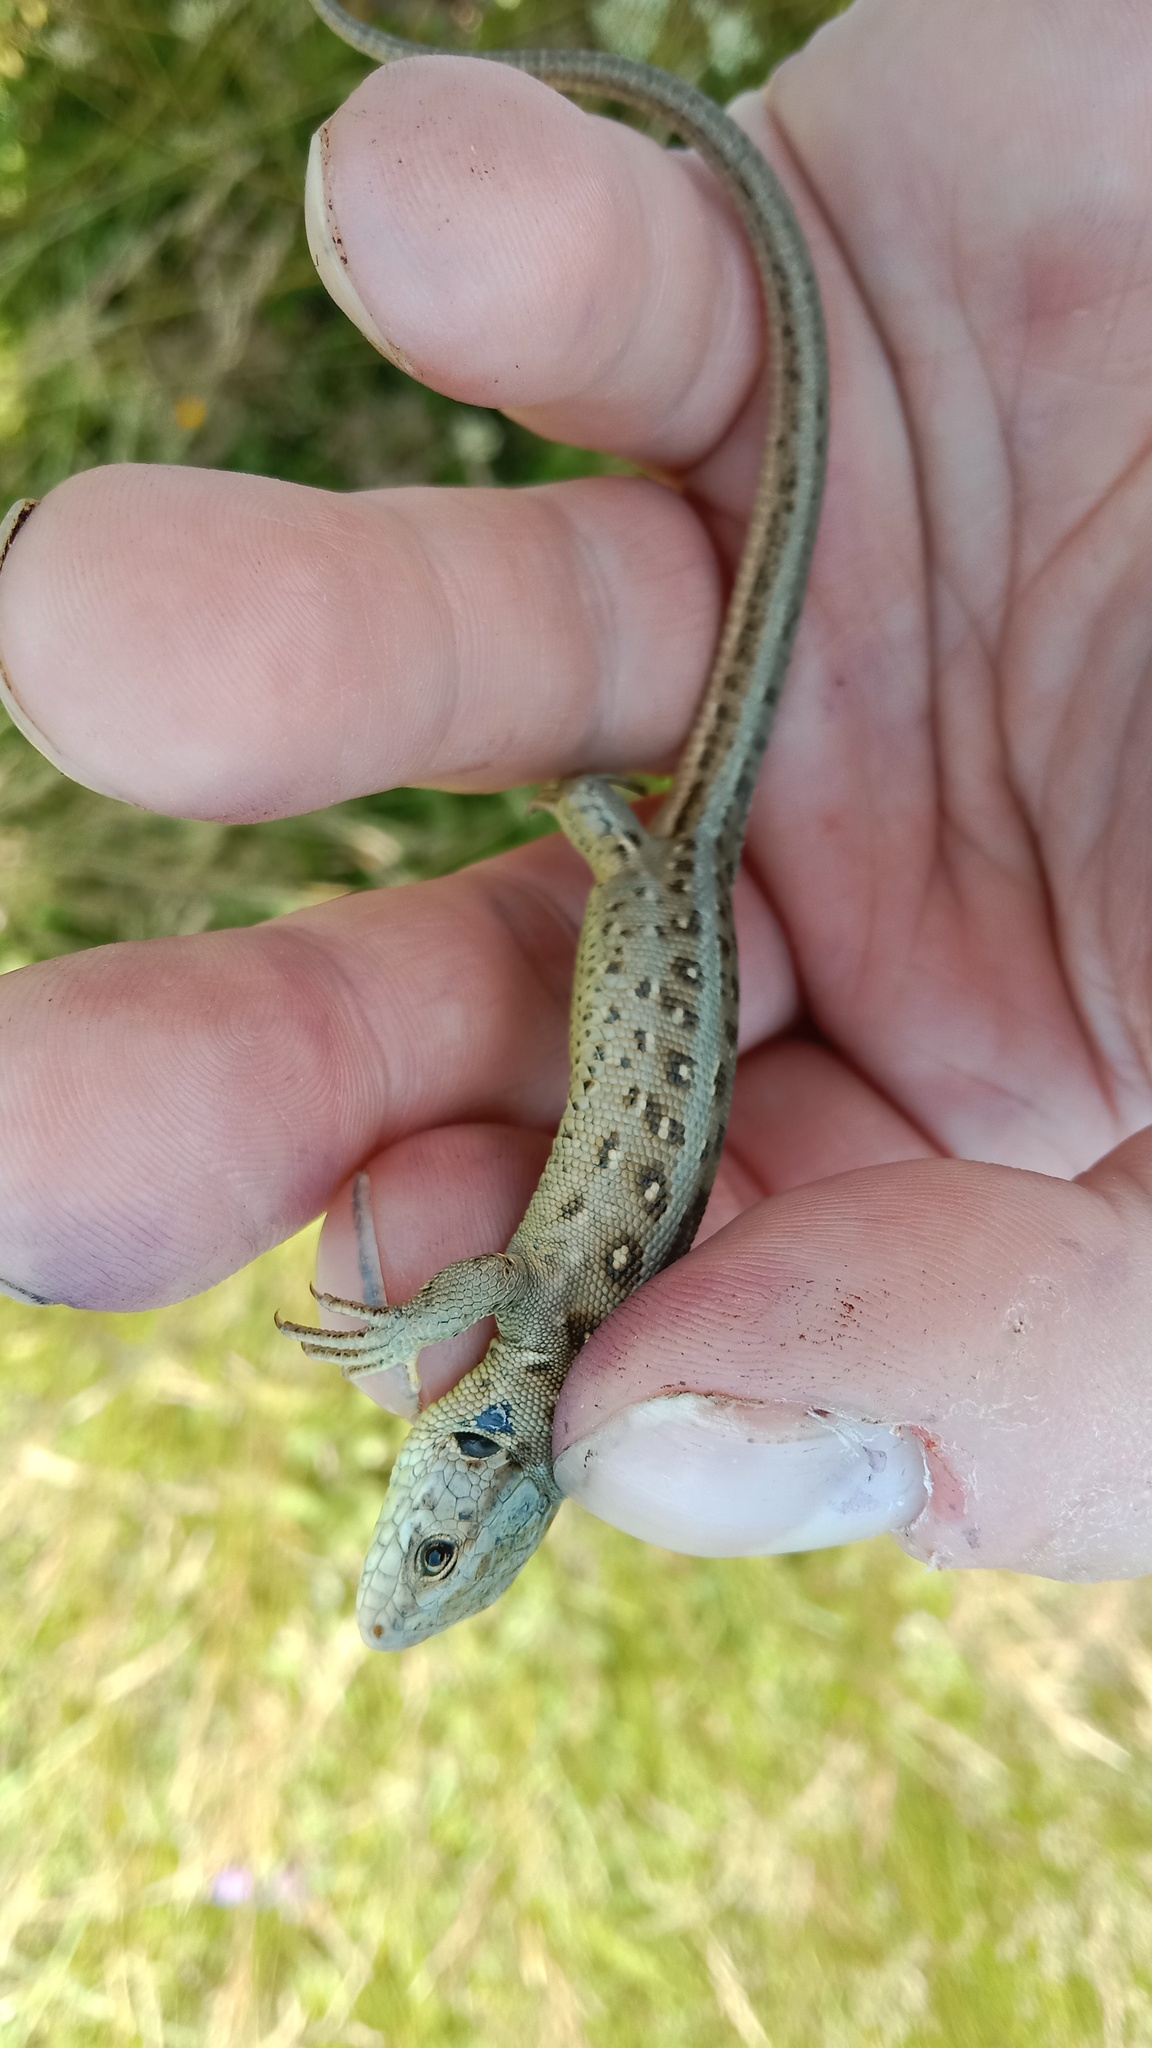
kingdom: Animalia
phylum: Chordata
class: Squamata
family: Lacertidae
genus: Lacerta
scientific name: Lacerta agilis
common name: Sand lizard
